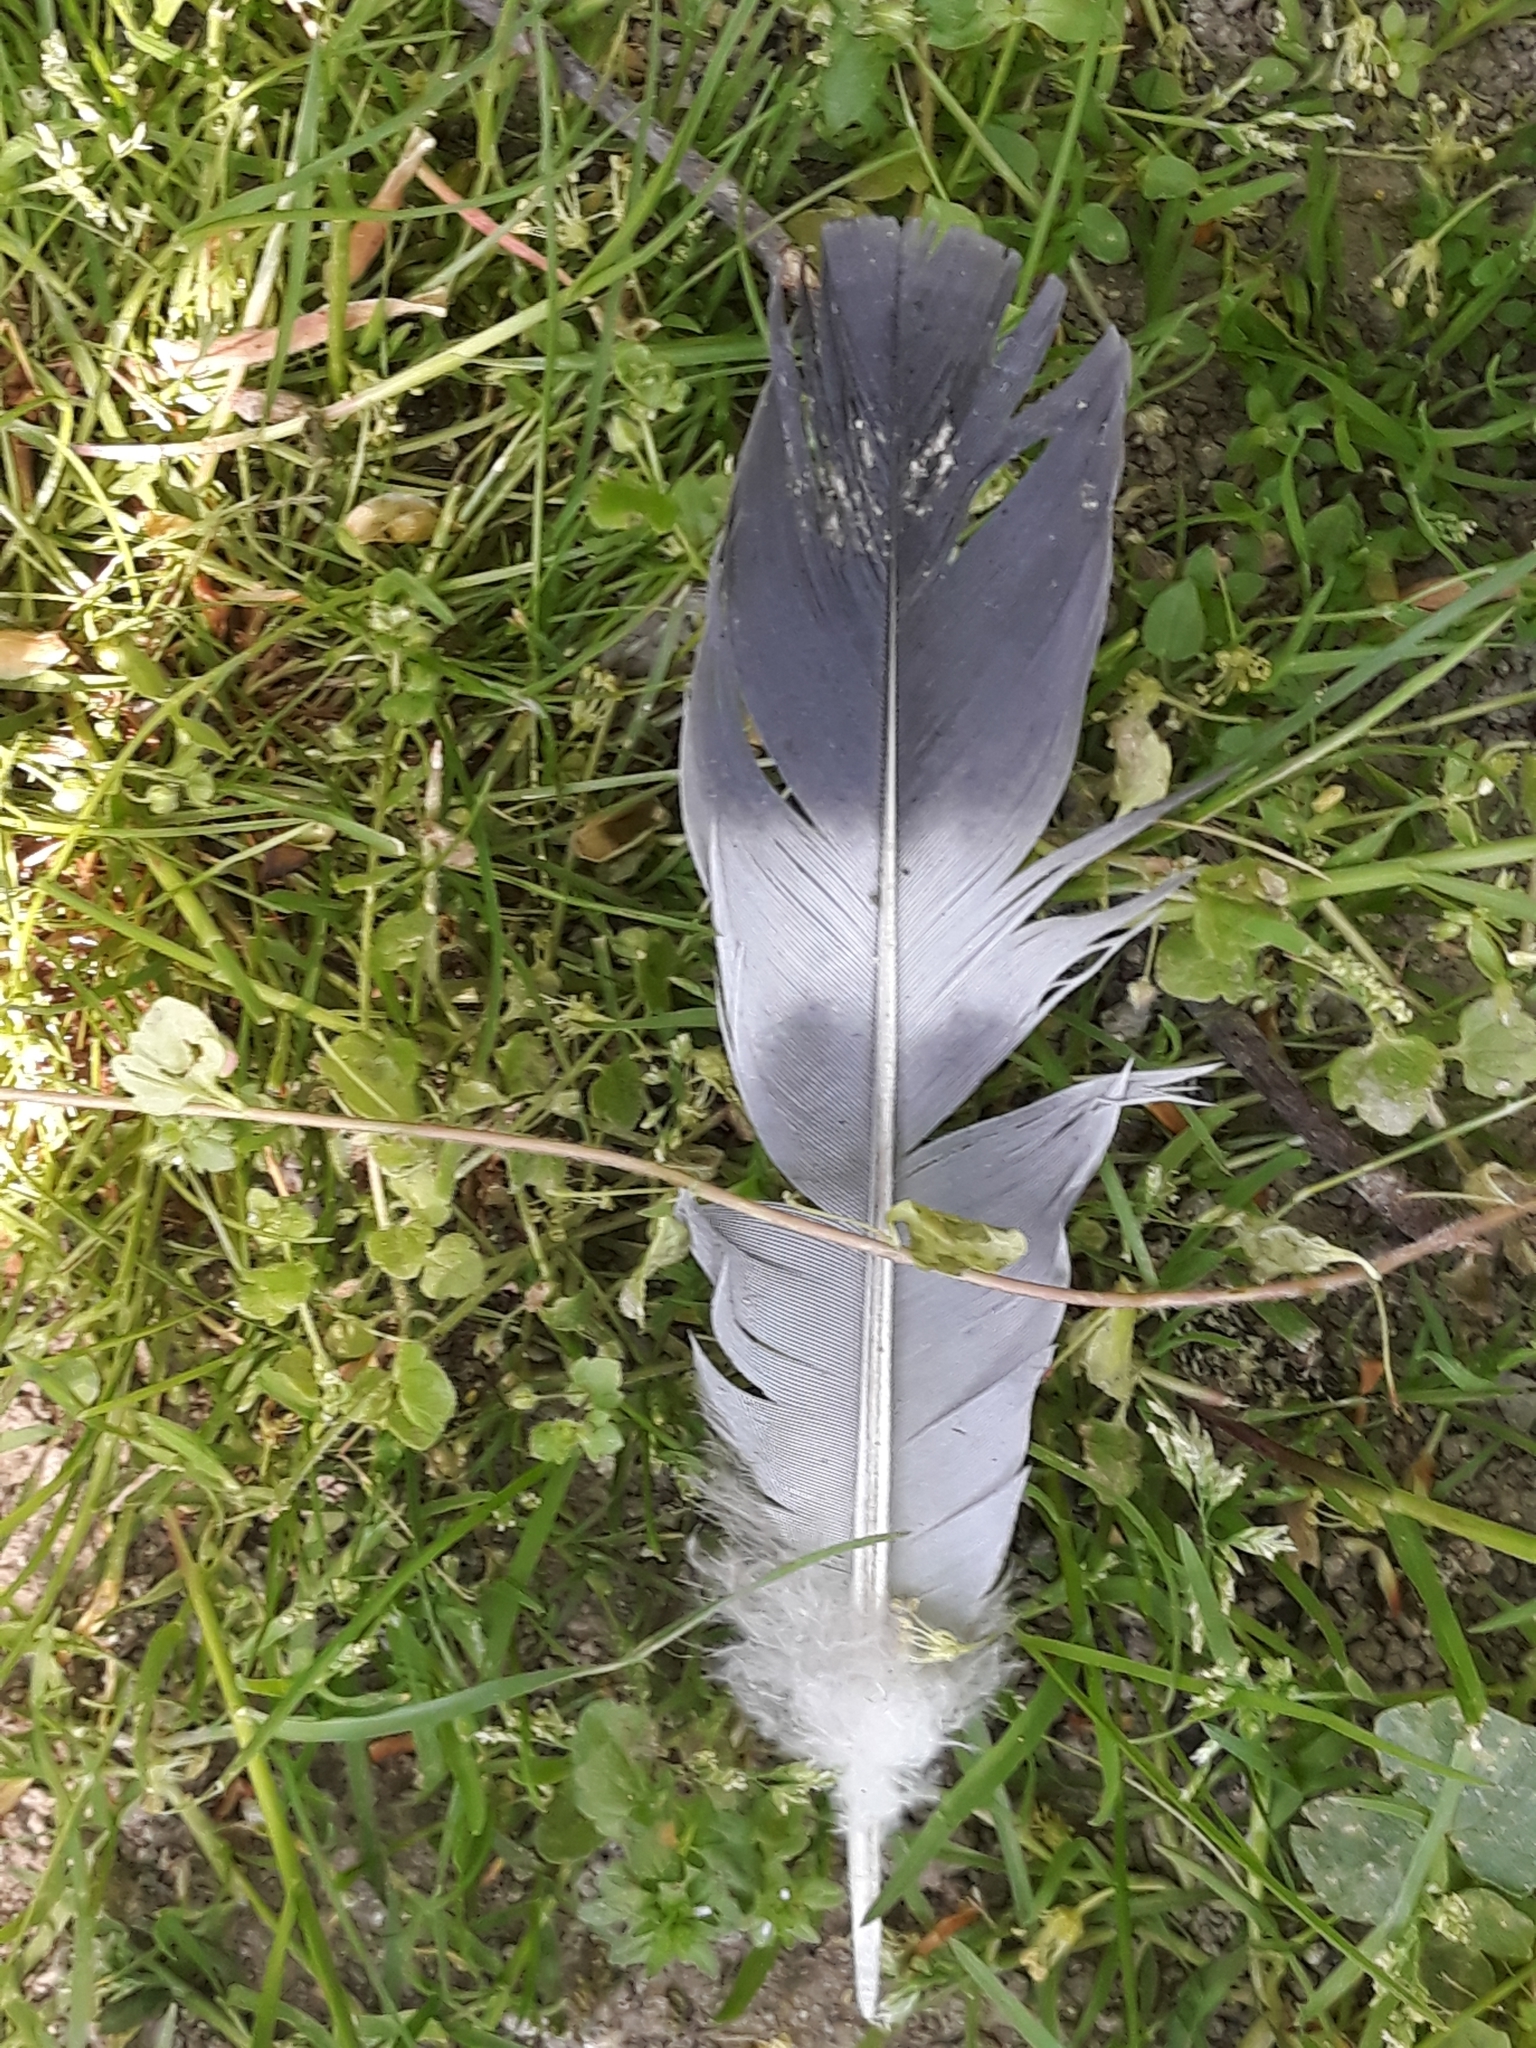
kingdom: Animalia
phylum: Chordata
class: Aves
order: Columbiformes
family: Columbidae
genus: Columba
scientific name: Columba palumbus
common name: Common wood pigeon
